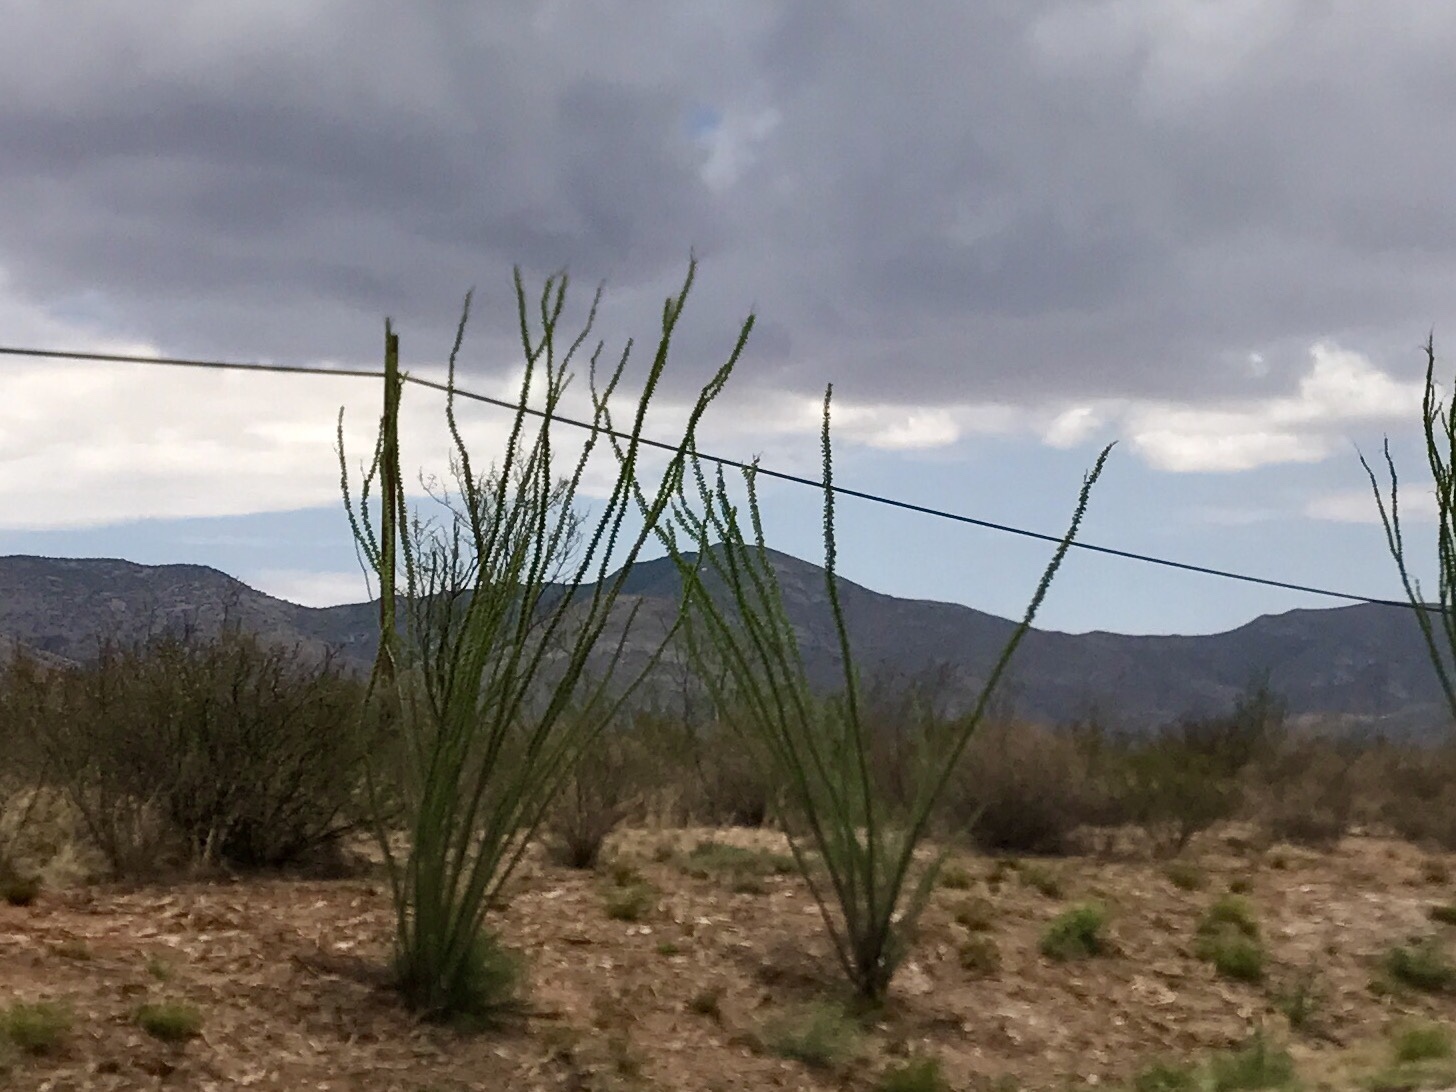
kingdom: Plantae
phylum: Tracheophyta
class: Magnoliopsida
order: Ericales
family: Fouquieriaceae
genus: Fouquieria
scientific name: Fouquieria splendens
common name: Vine-cactus
